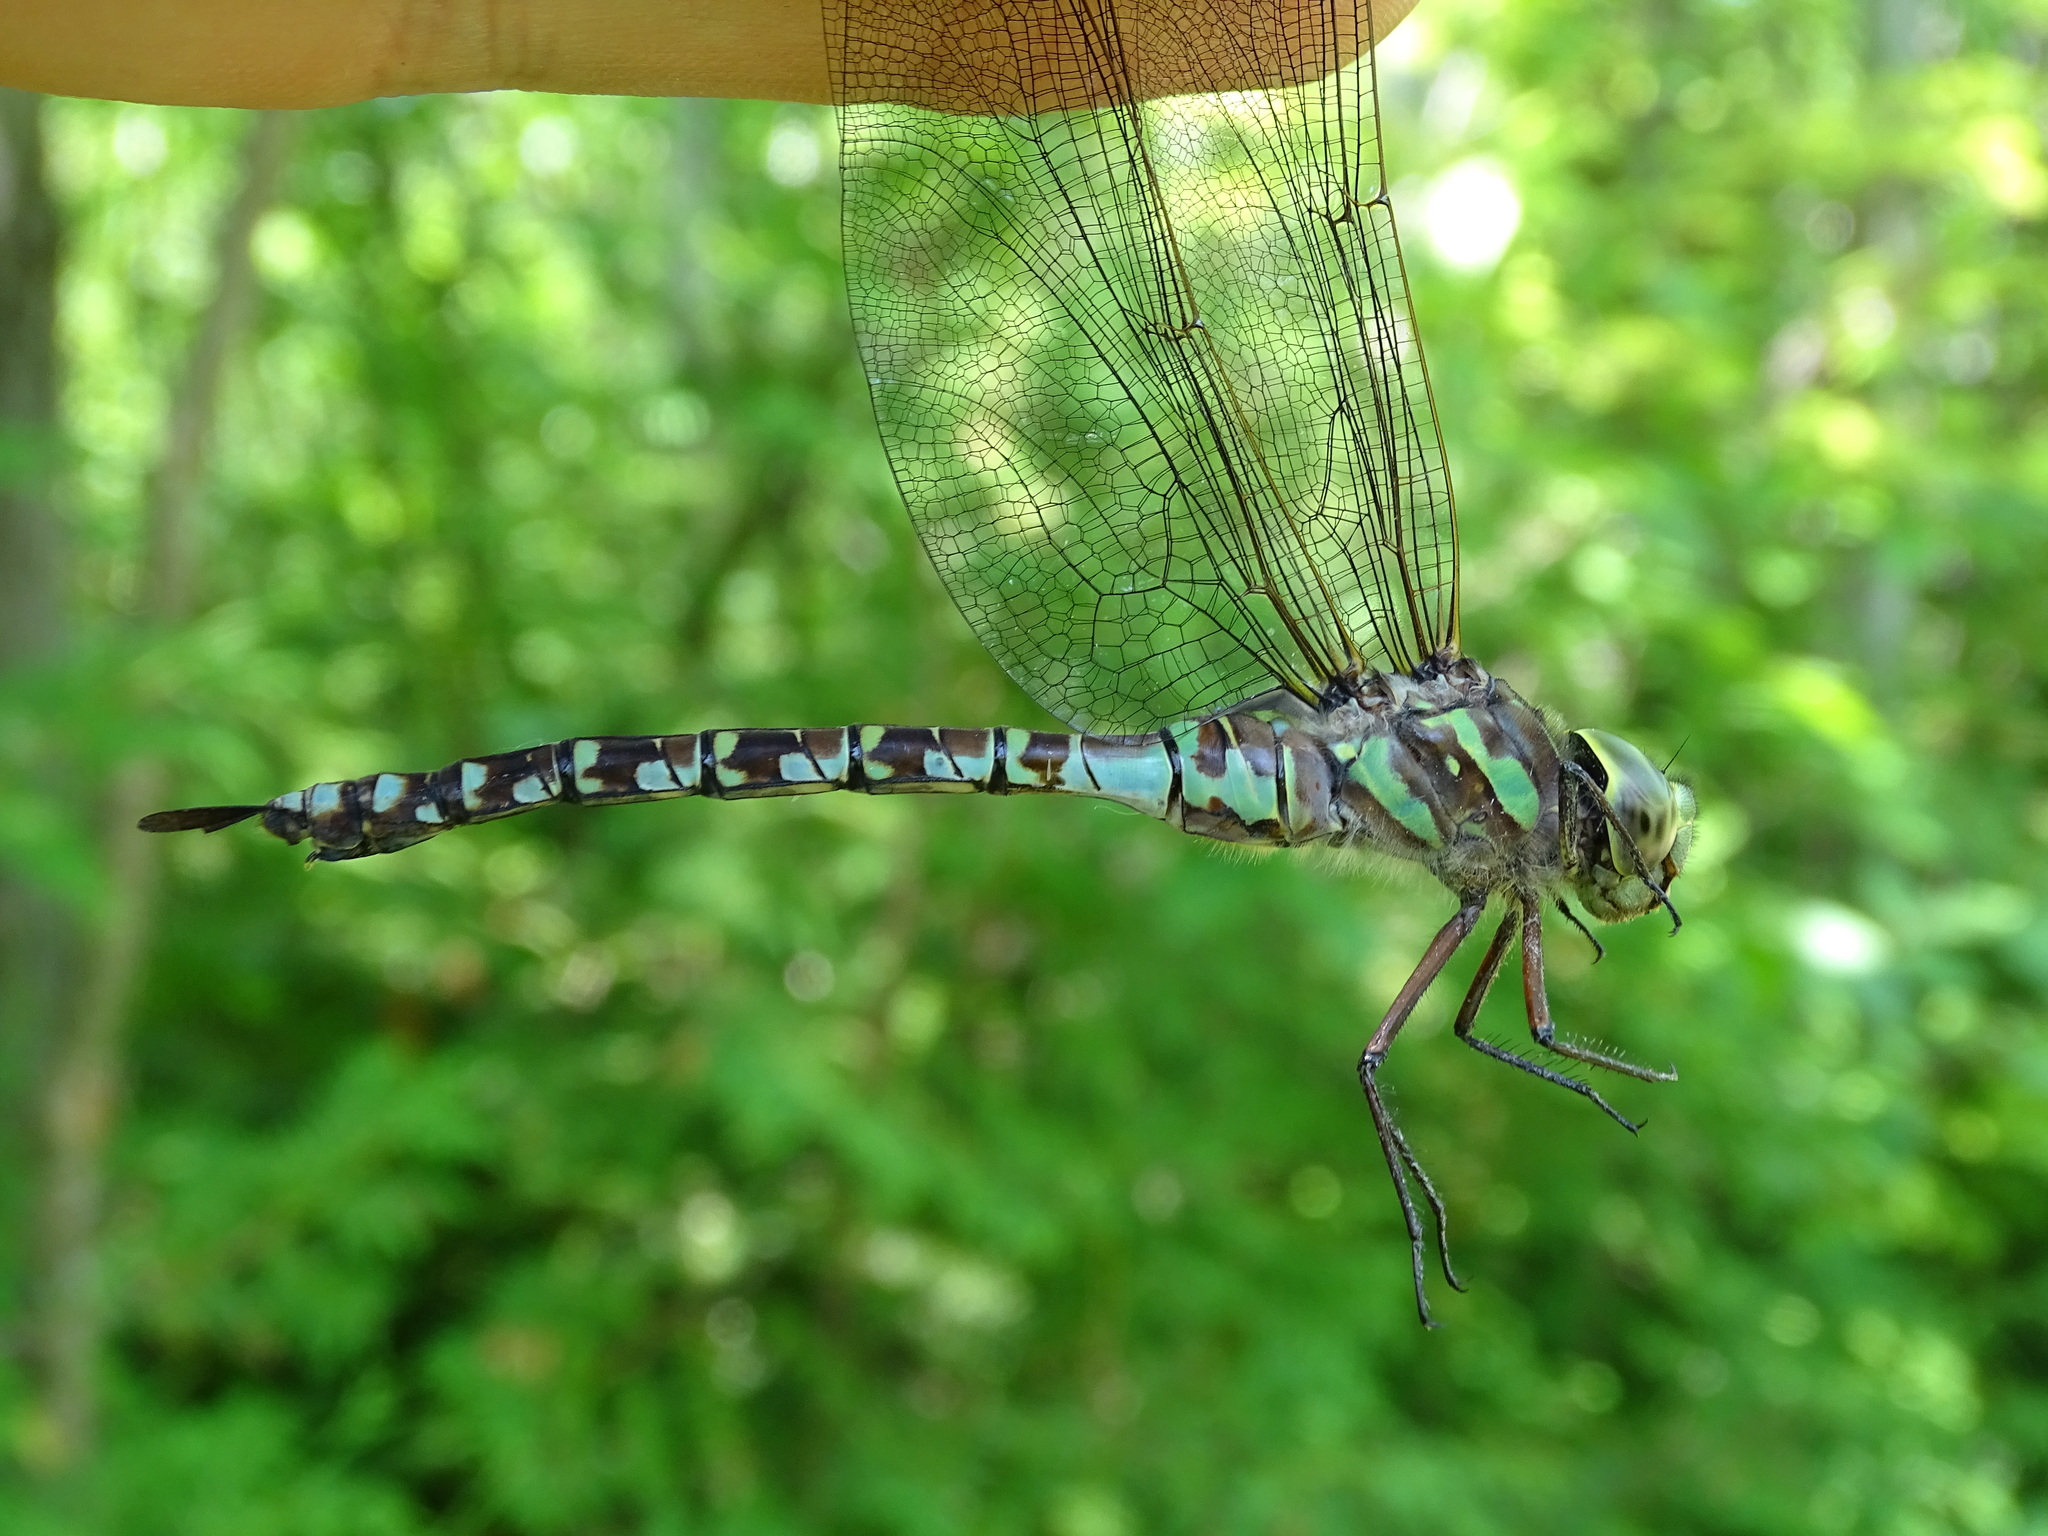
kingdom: Animalia
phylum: Arthropoda
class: Insecta
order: Odonata
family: Aeshnidae
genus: Aeshna
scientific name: Aeshna canadensis
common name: Canada darner
